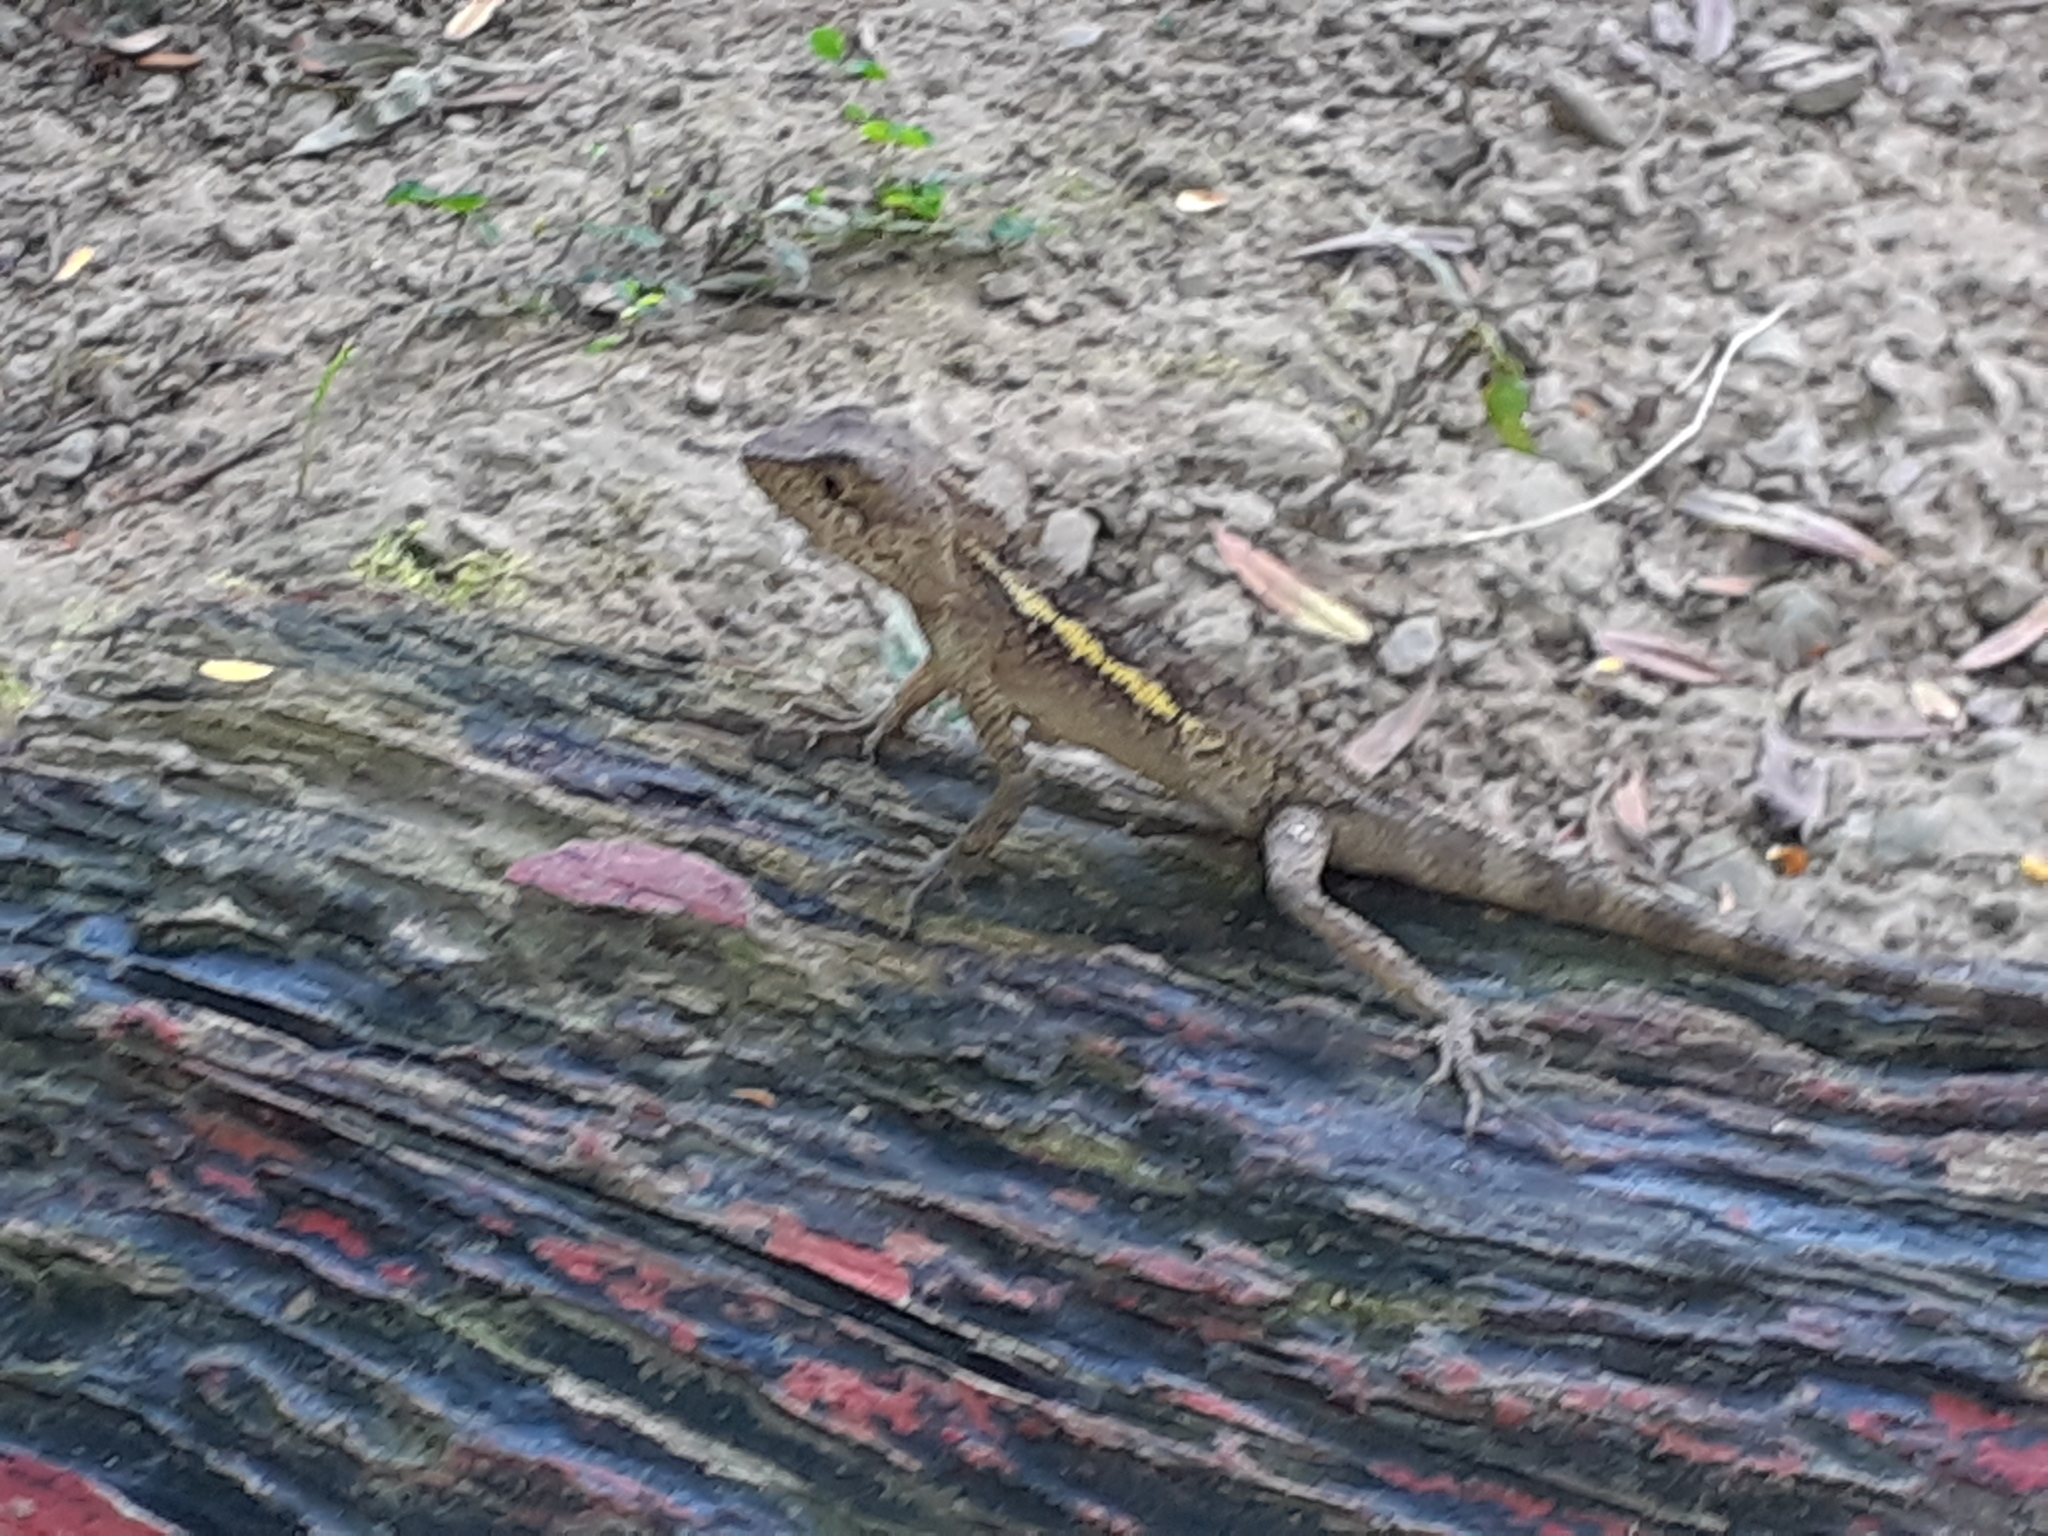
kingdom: Animalia
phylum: Chordata
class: Squamata
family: Agamidae
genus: Diploderma
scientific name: Diploderma swinhonis
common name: Taiwan japalure
